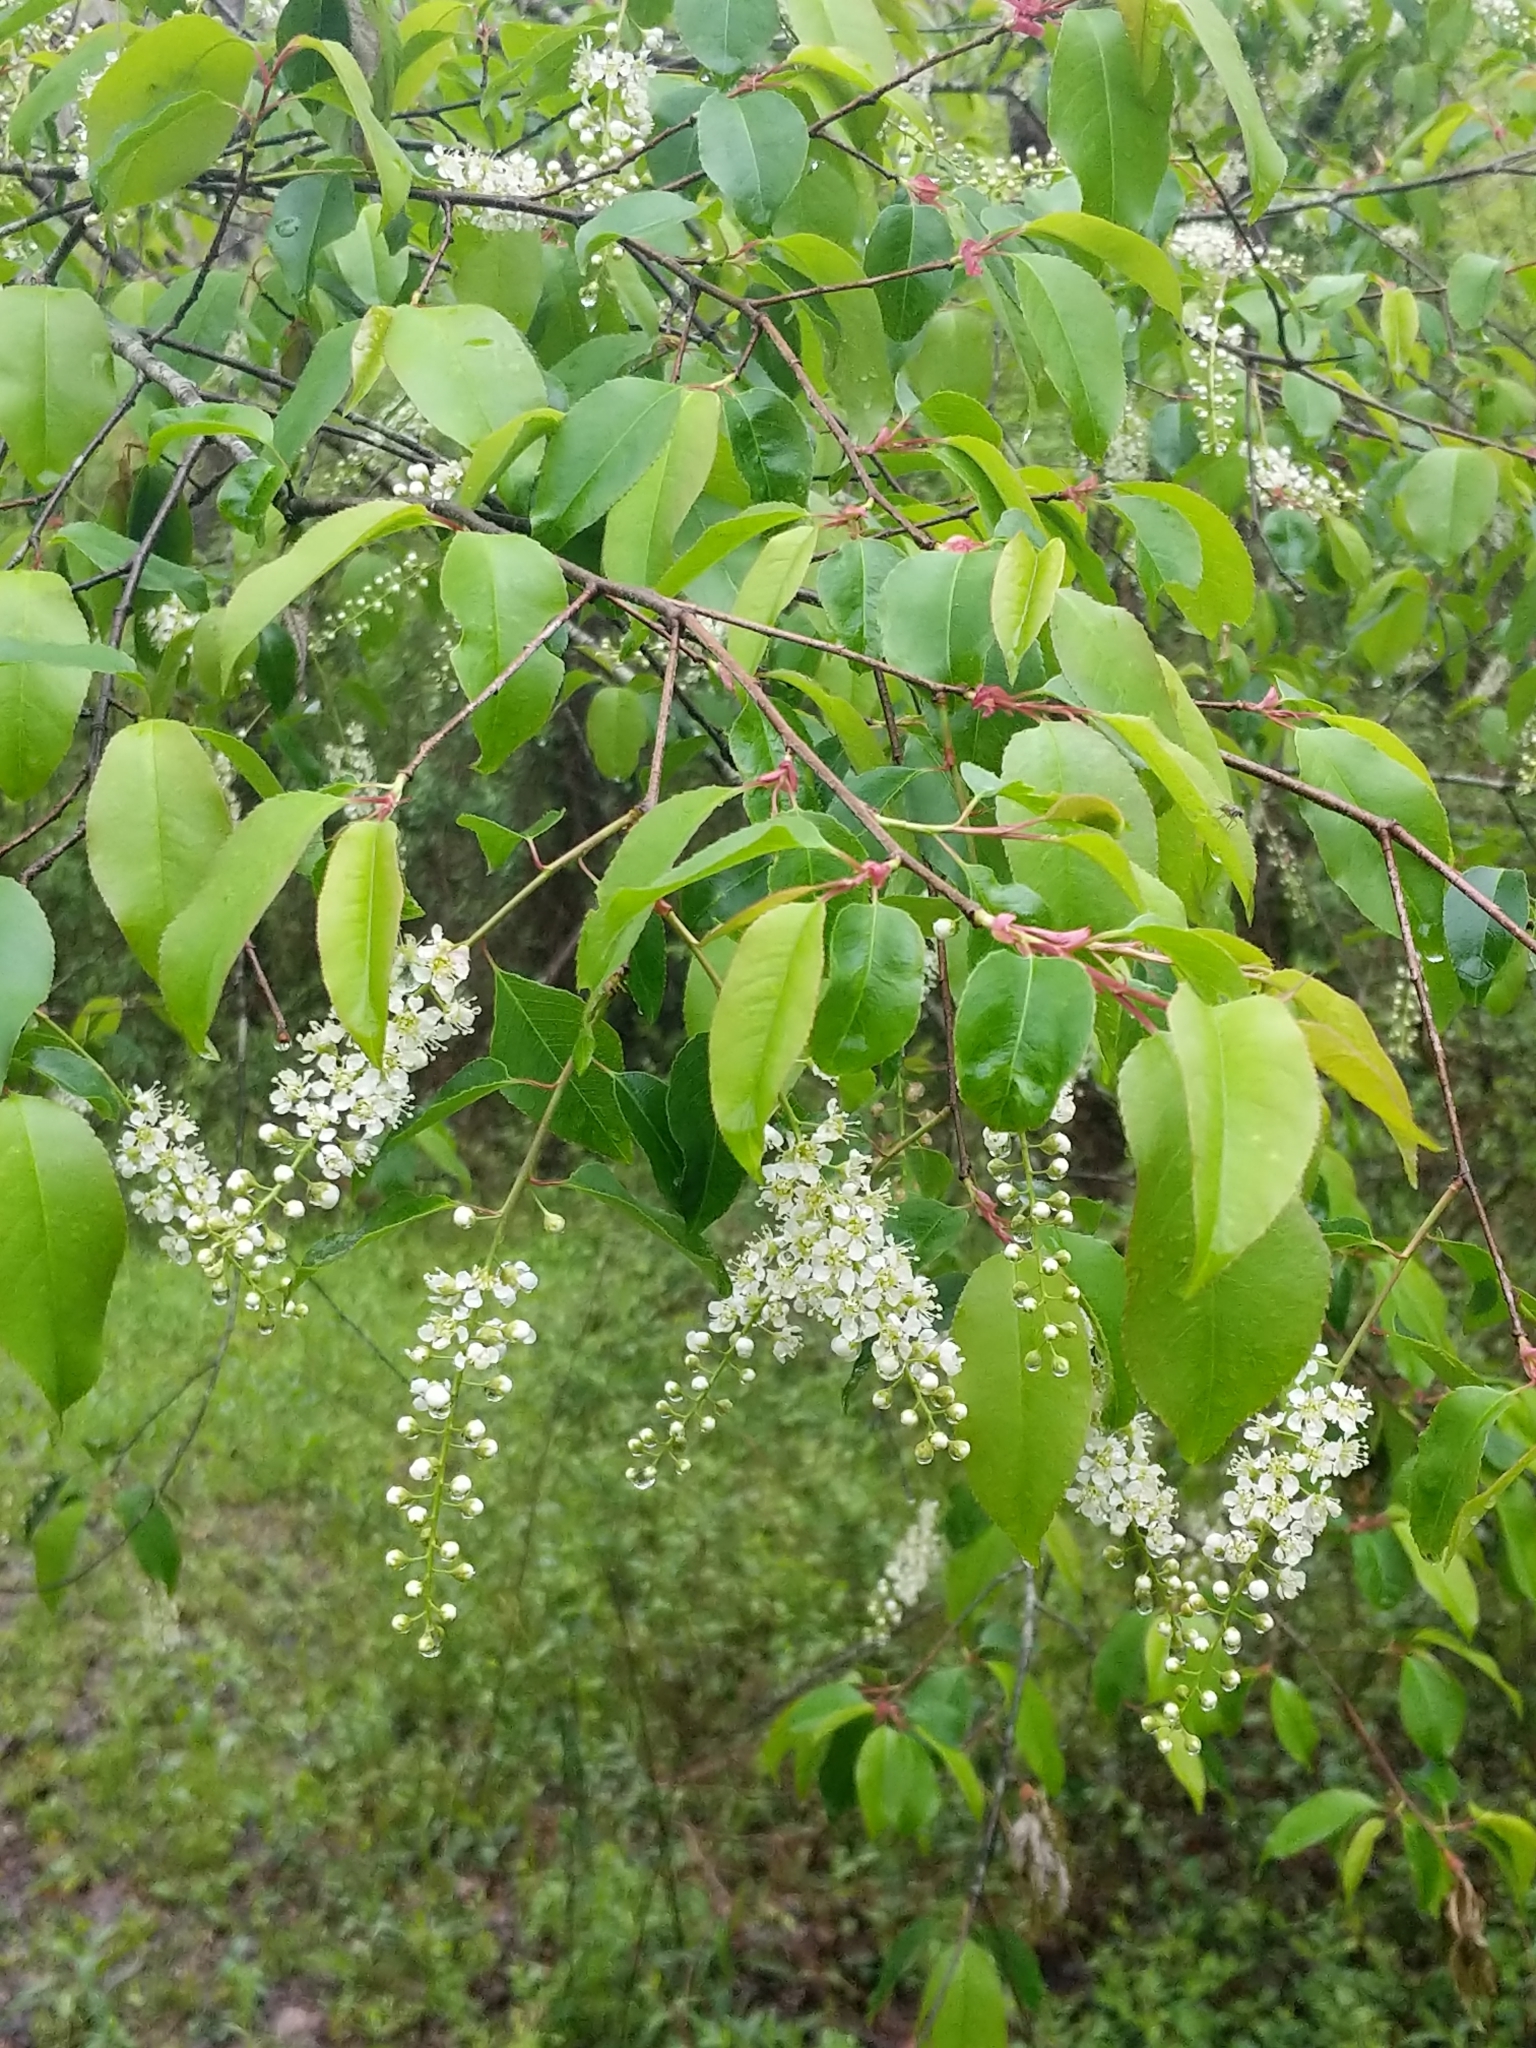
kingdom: Plantae
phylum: Tracheophyta
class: Magnoliopsida
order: Rosales
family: Rosaceae
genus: Prunus
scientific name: Prunus serotina
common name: Black cherry
